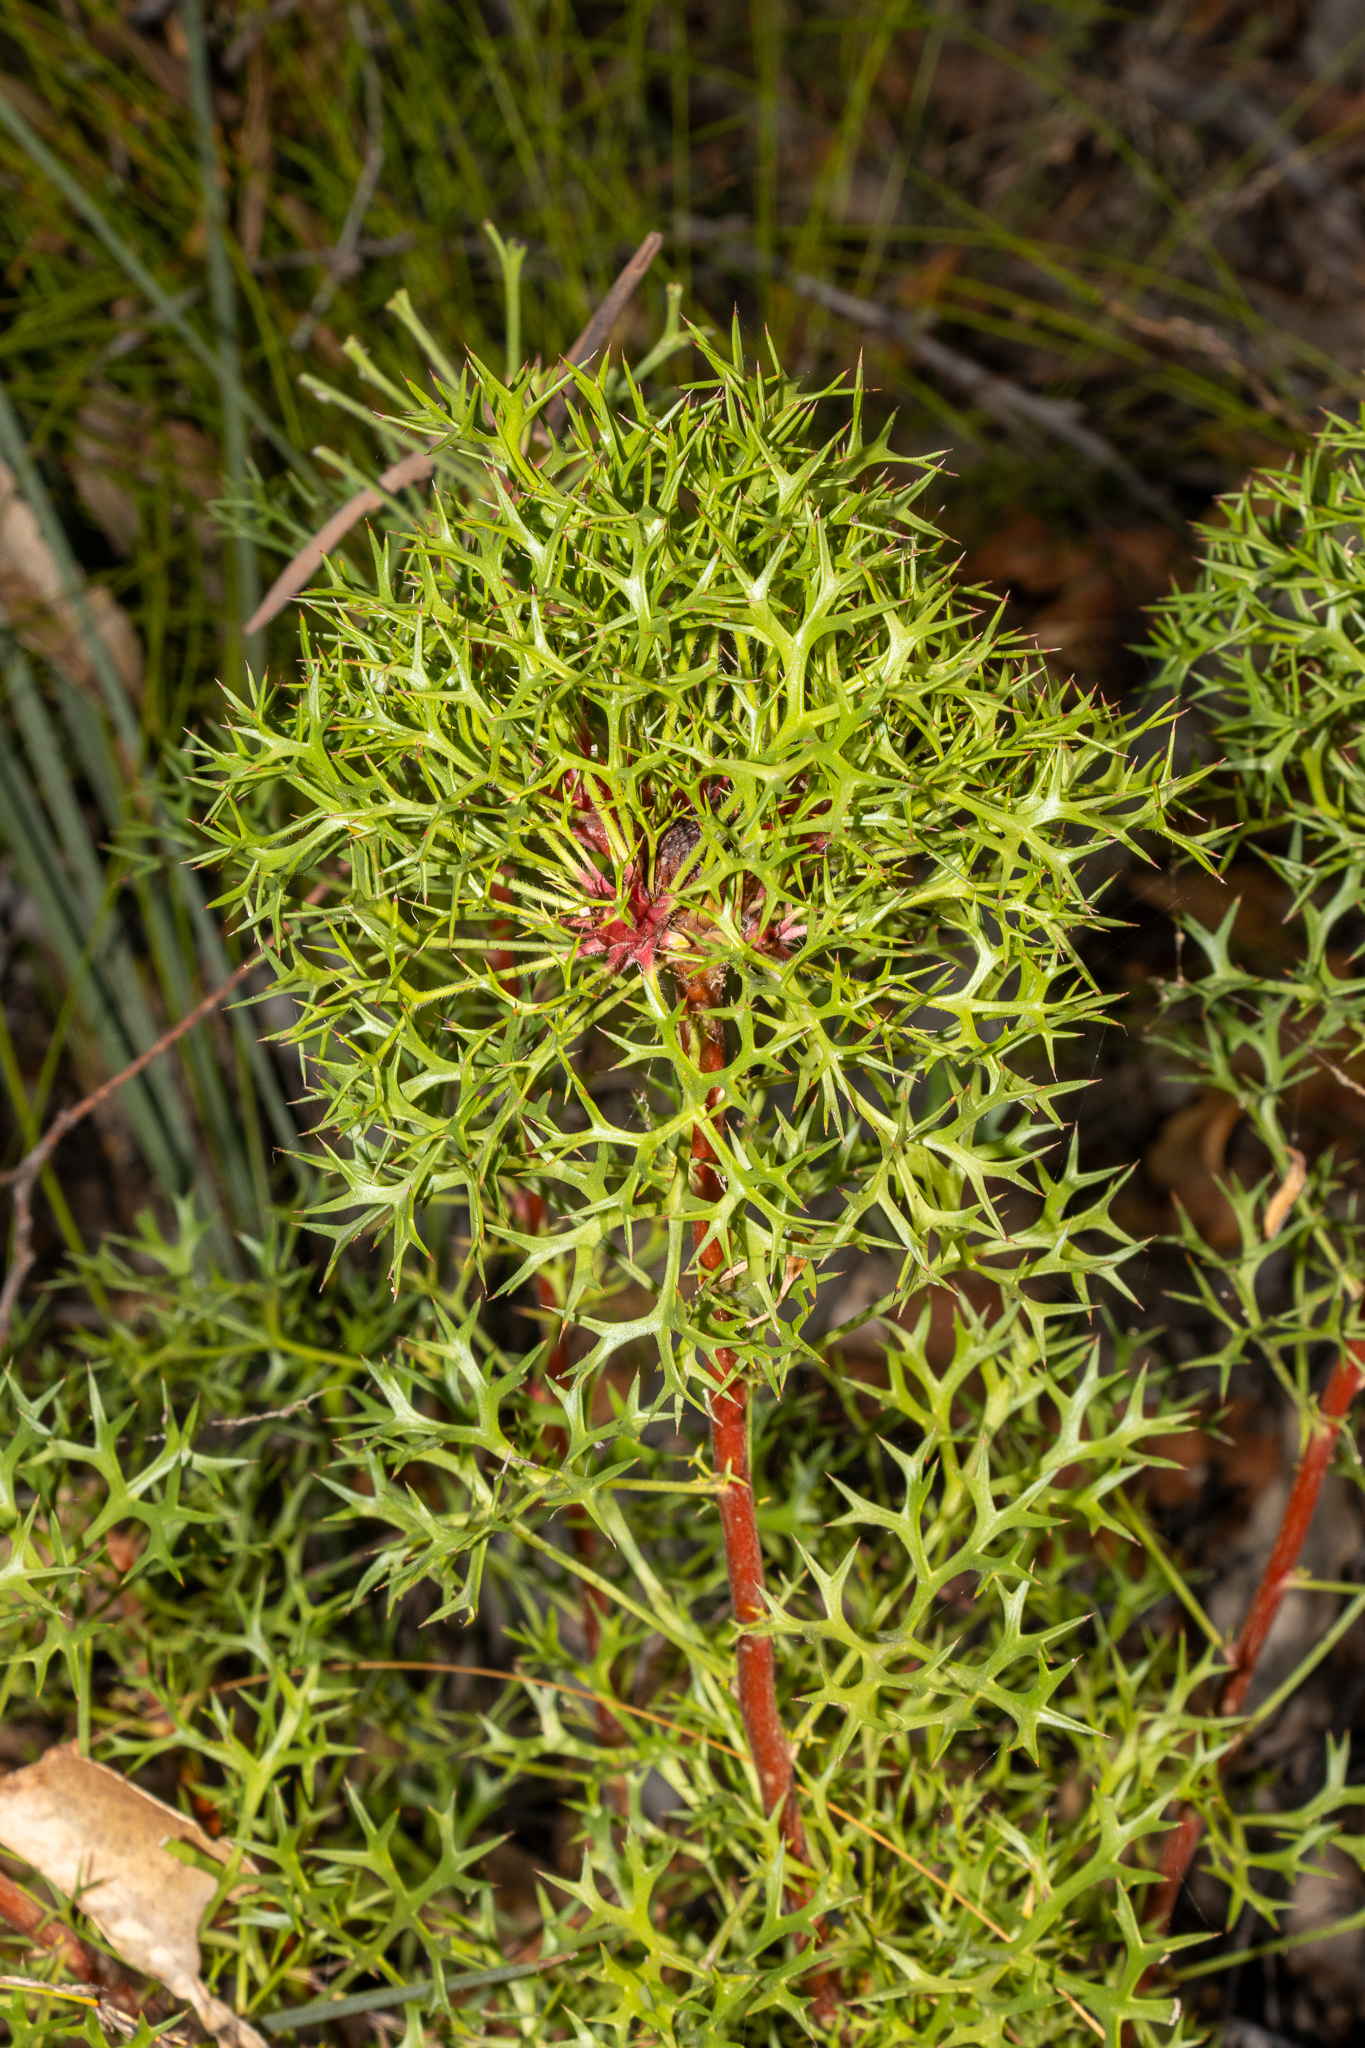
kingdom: Plantae
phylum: Tracheophyta
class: Magnoliopsida
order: Proteales
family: Proteaceae
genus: Isopogon
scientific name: Isopogon ceratophyllus
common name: Horny cone-bush
